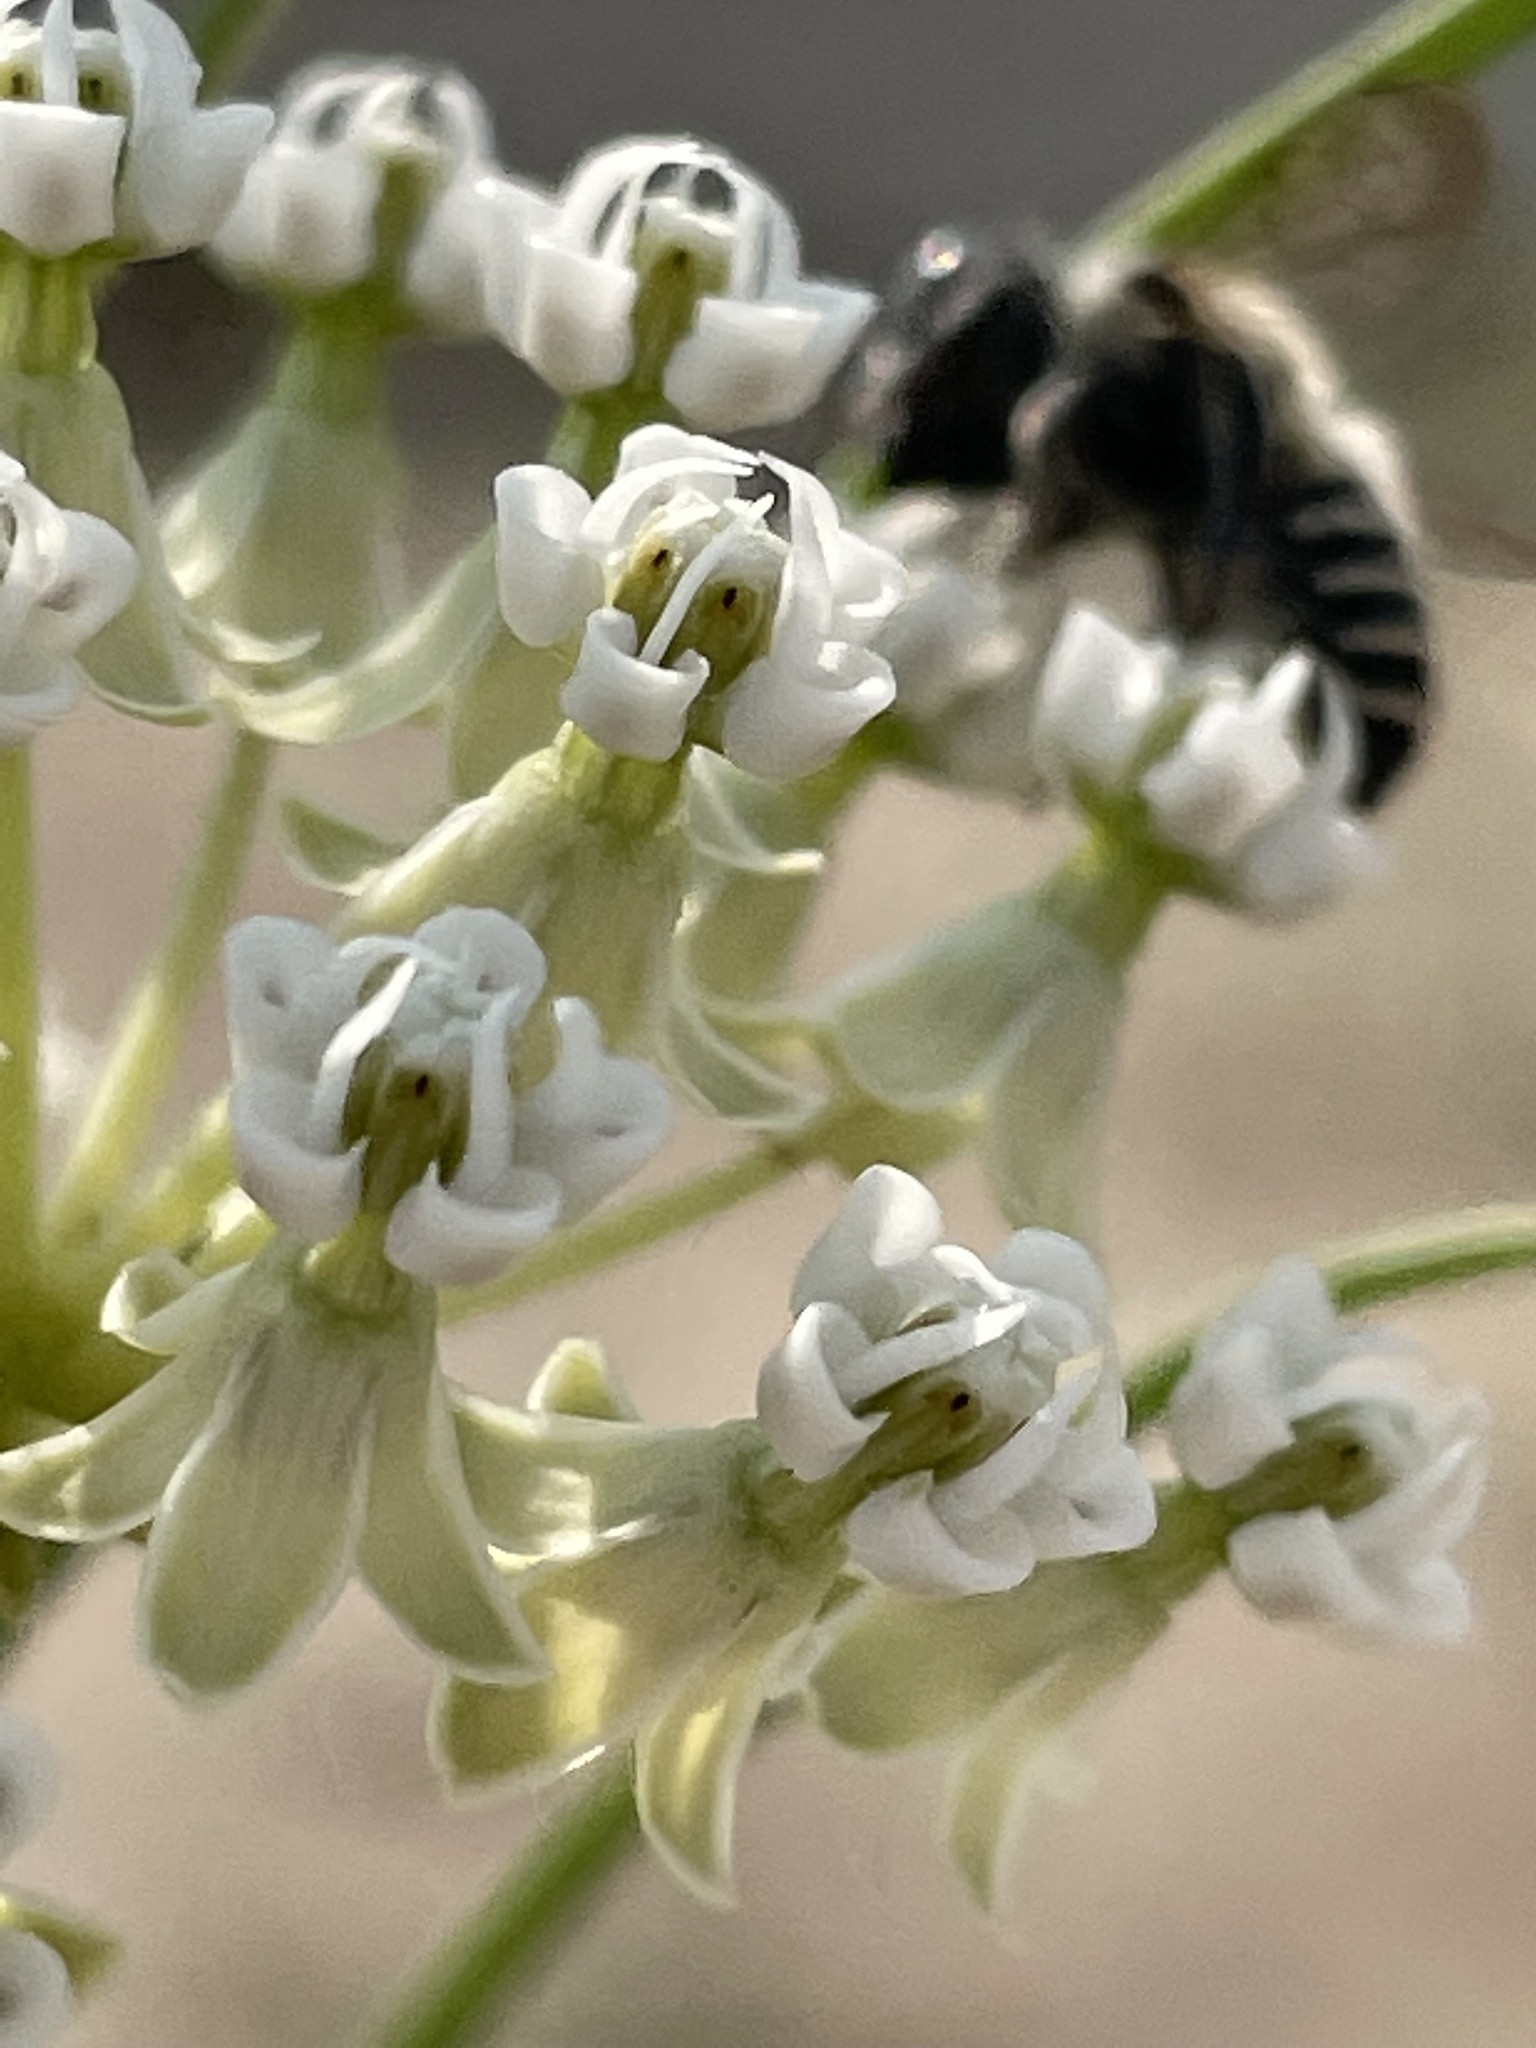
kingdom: Plantae
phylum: Tracheophyta
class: Magnoliopsida
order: Gentianales
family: Apocynaceae
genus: Asclepias
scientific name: Asclepias subverticillata
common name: Horsetail milkweed
